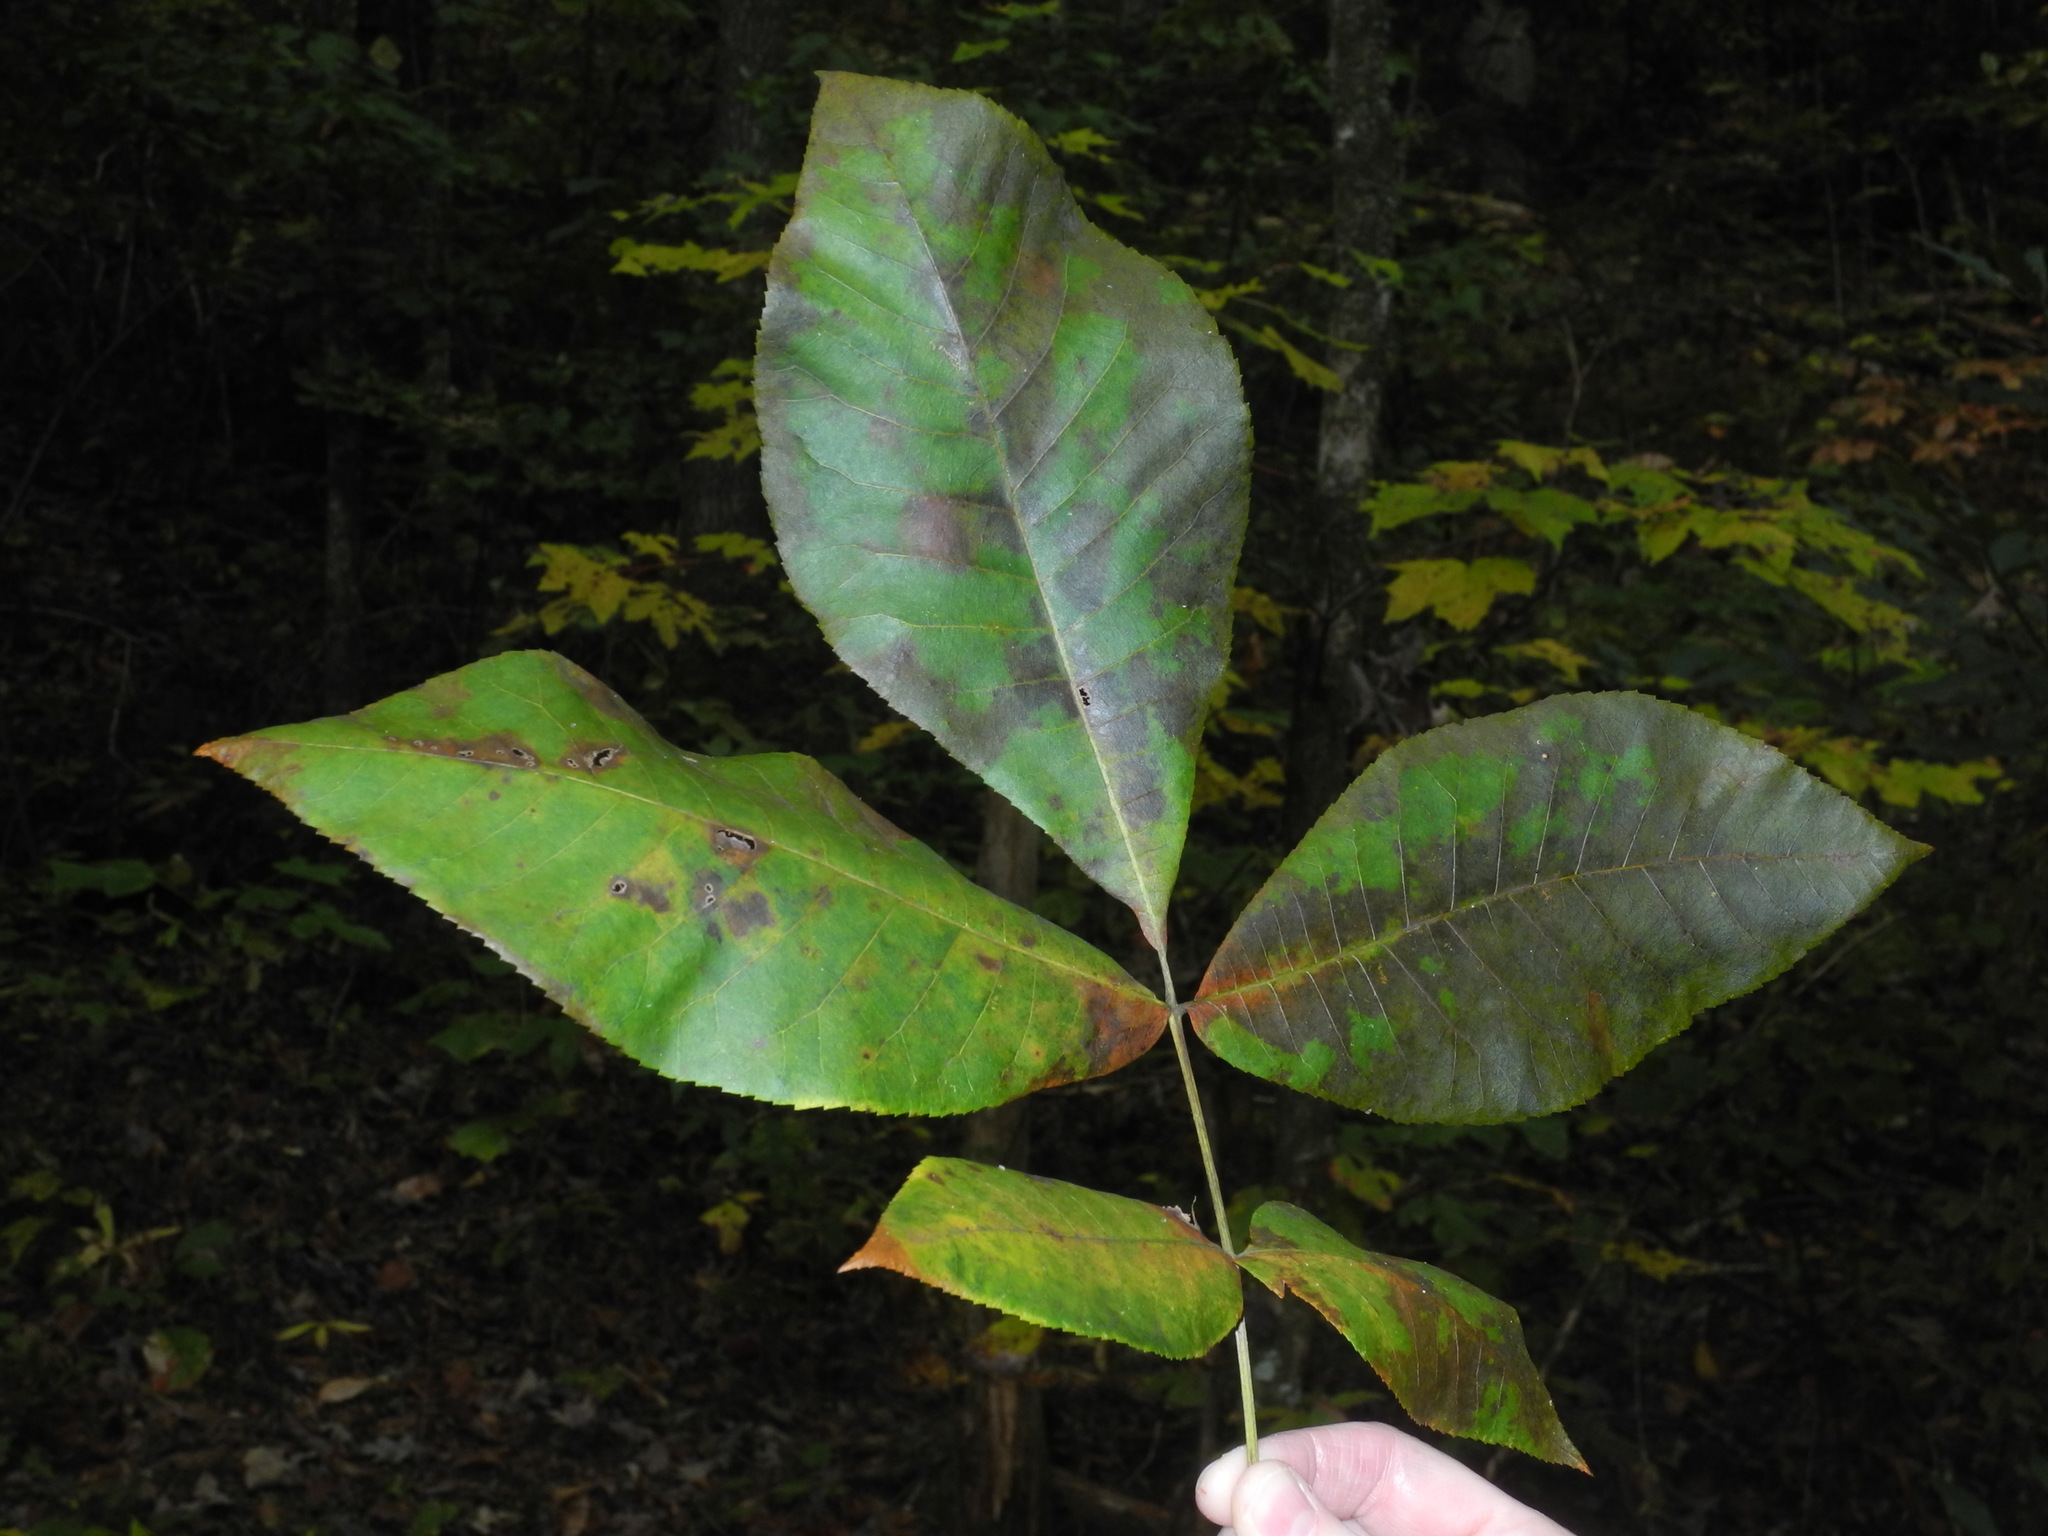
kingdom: Plantae
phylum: Tracheophyta
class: Magnoliopsida
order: Fagales
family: Juglandaceae
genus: Carya
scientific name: Carya glabra
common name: Pignut hickory
